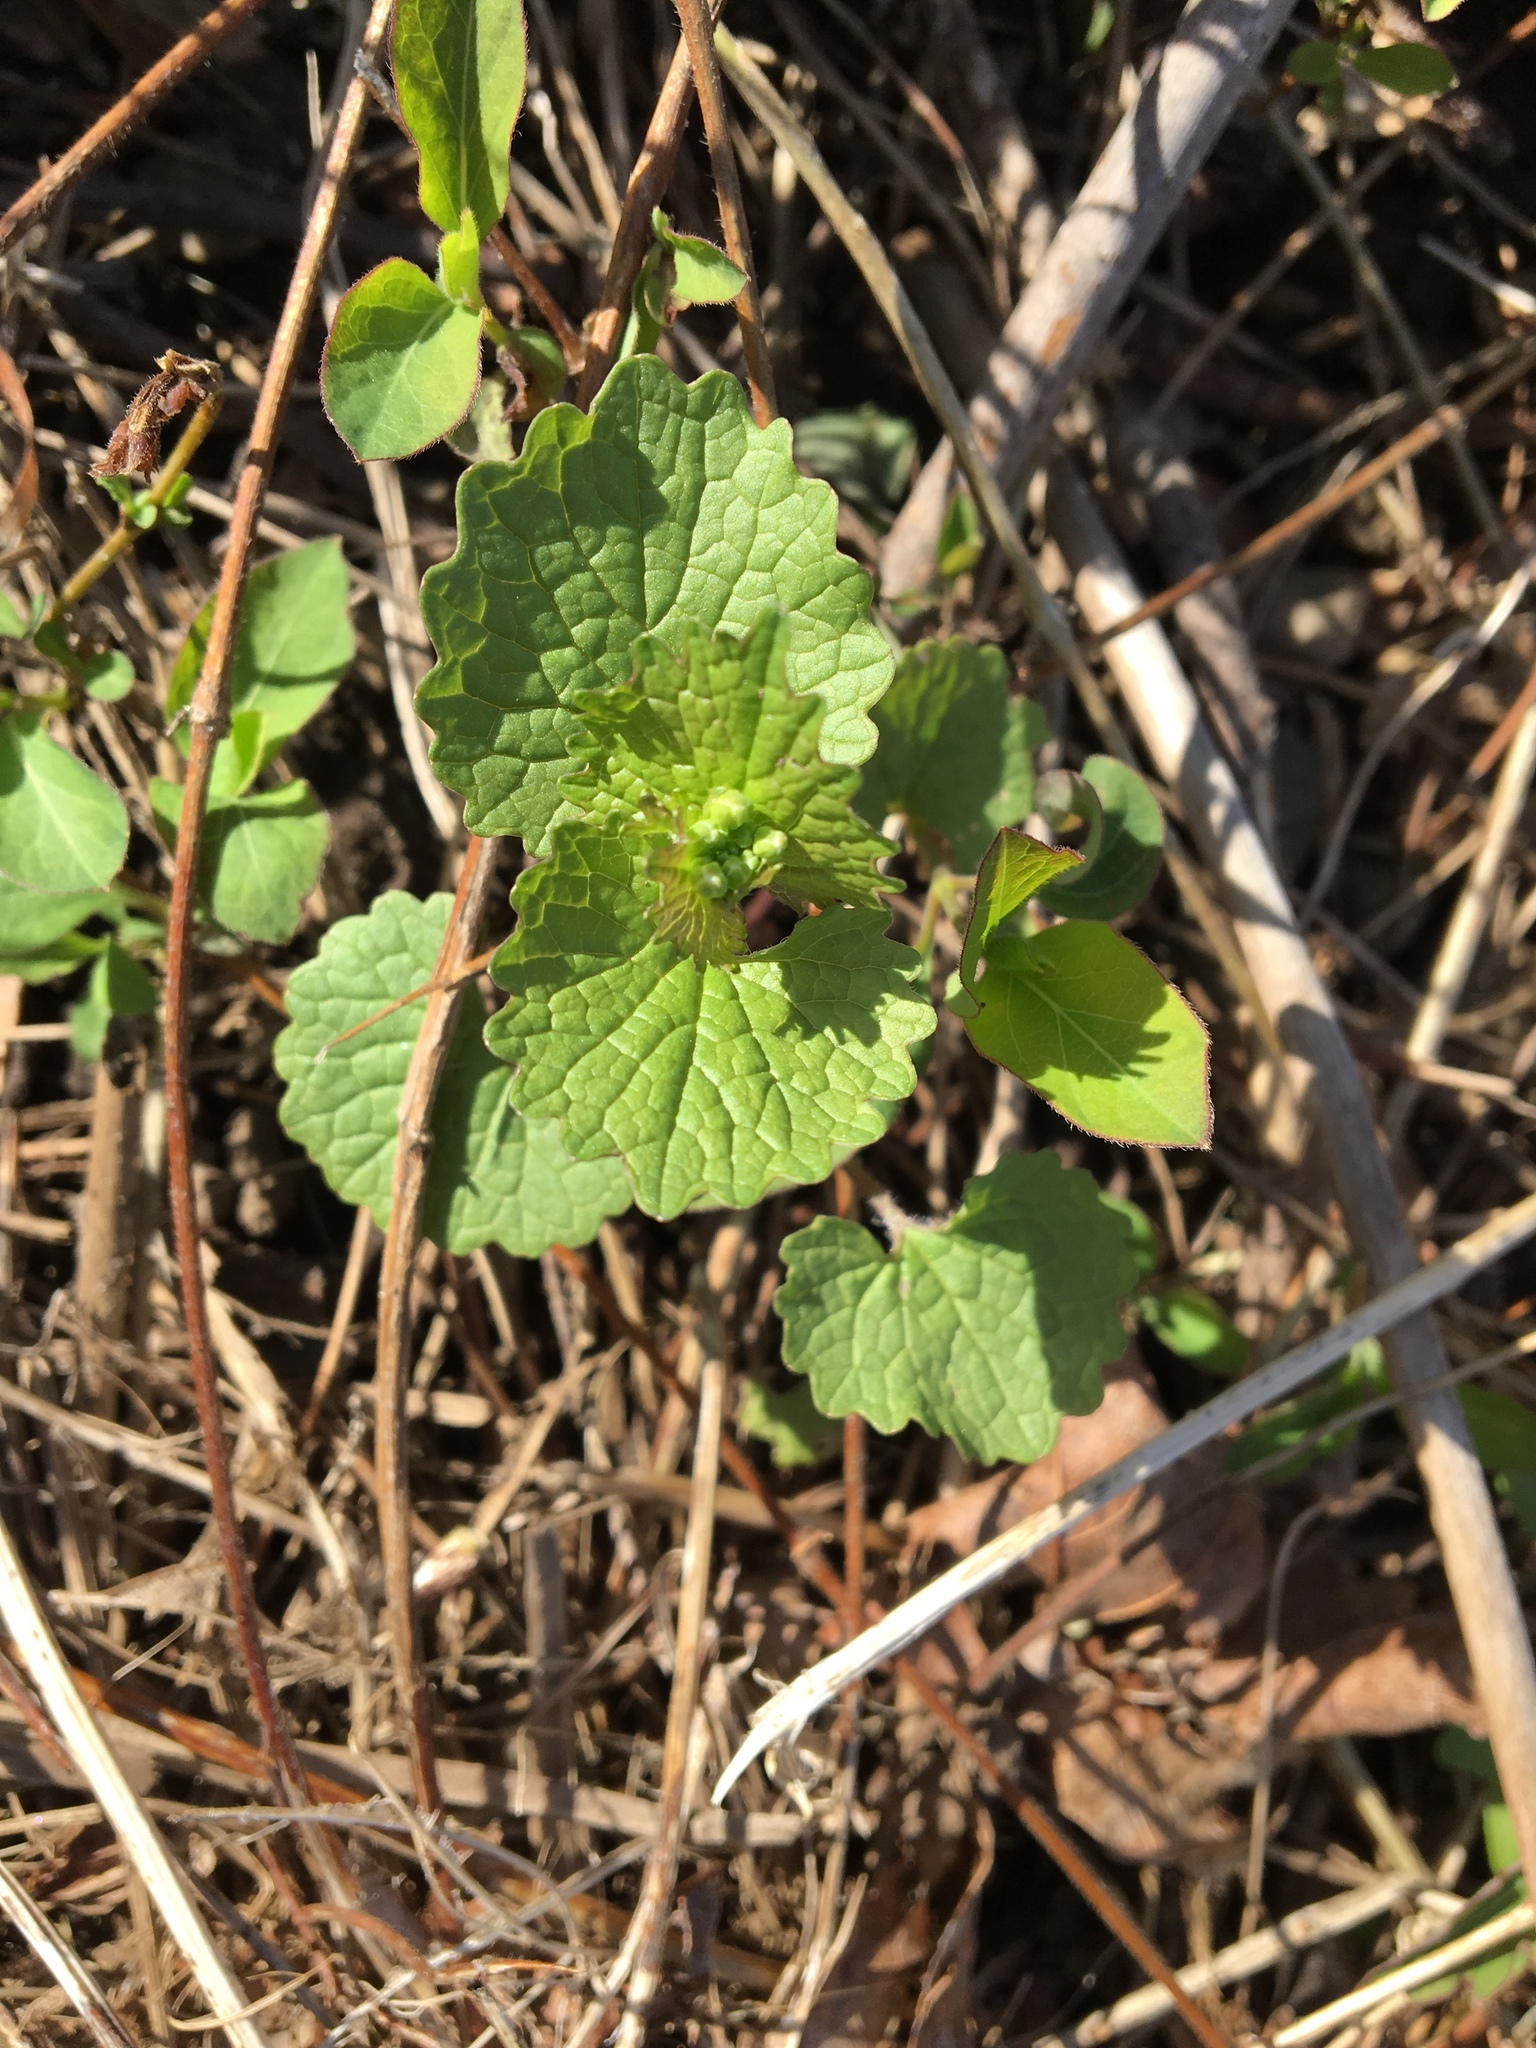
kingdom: Plantae
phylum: Tracheophyta
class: Magnoliopsida
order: Brassicales
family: Brassicaceae
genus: Alliaria
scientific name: Alliaria petiolata
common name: Garlic mustard
